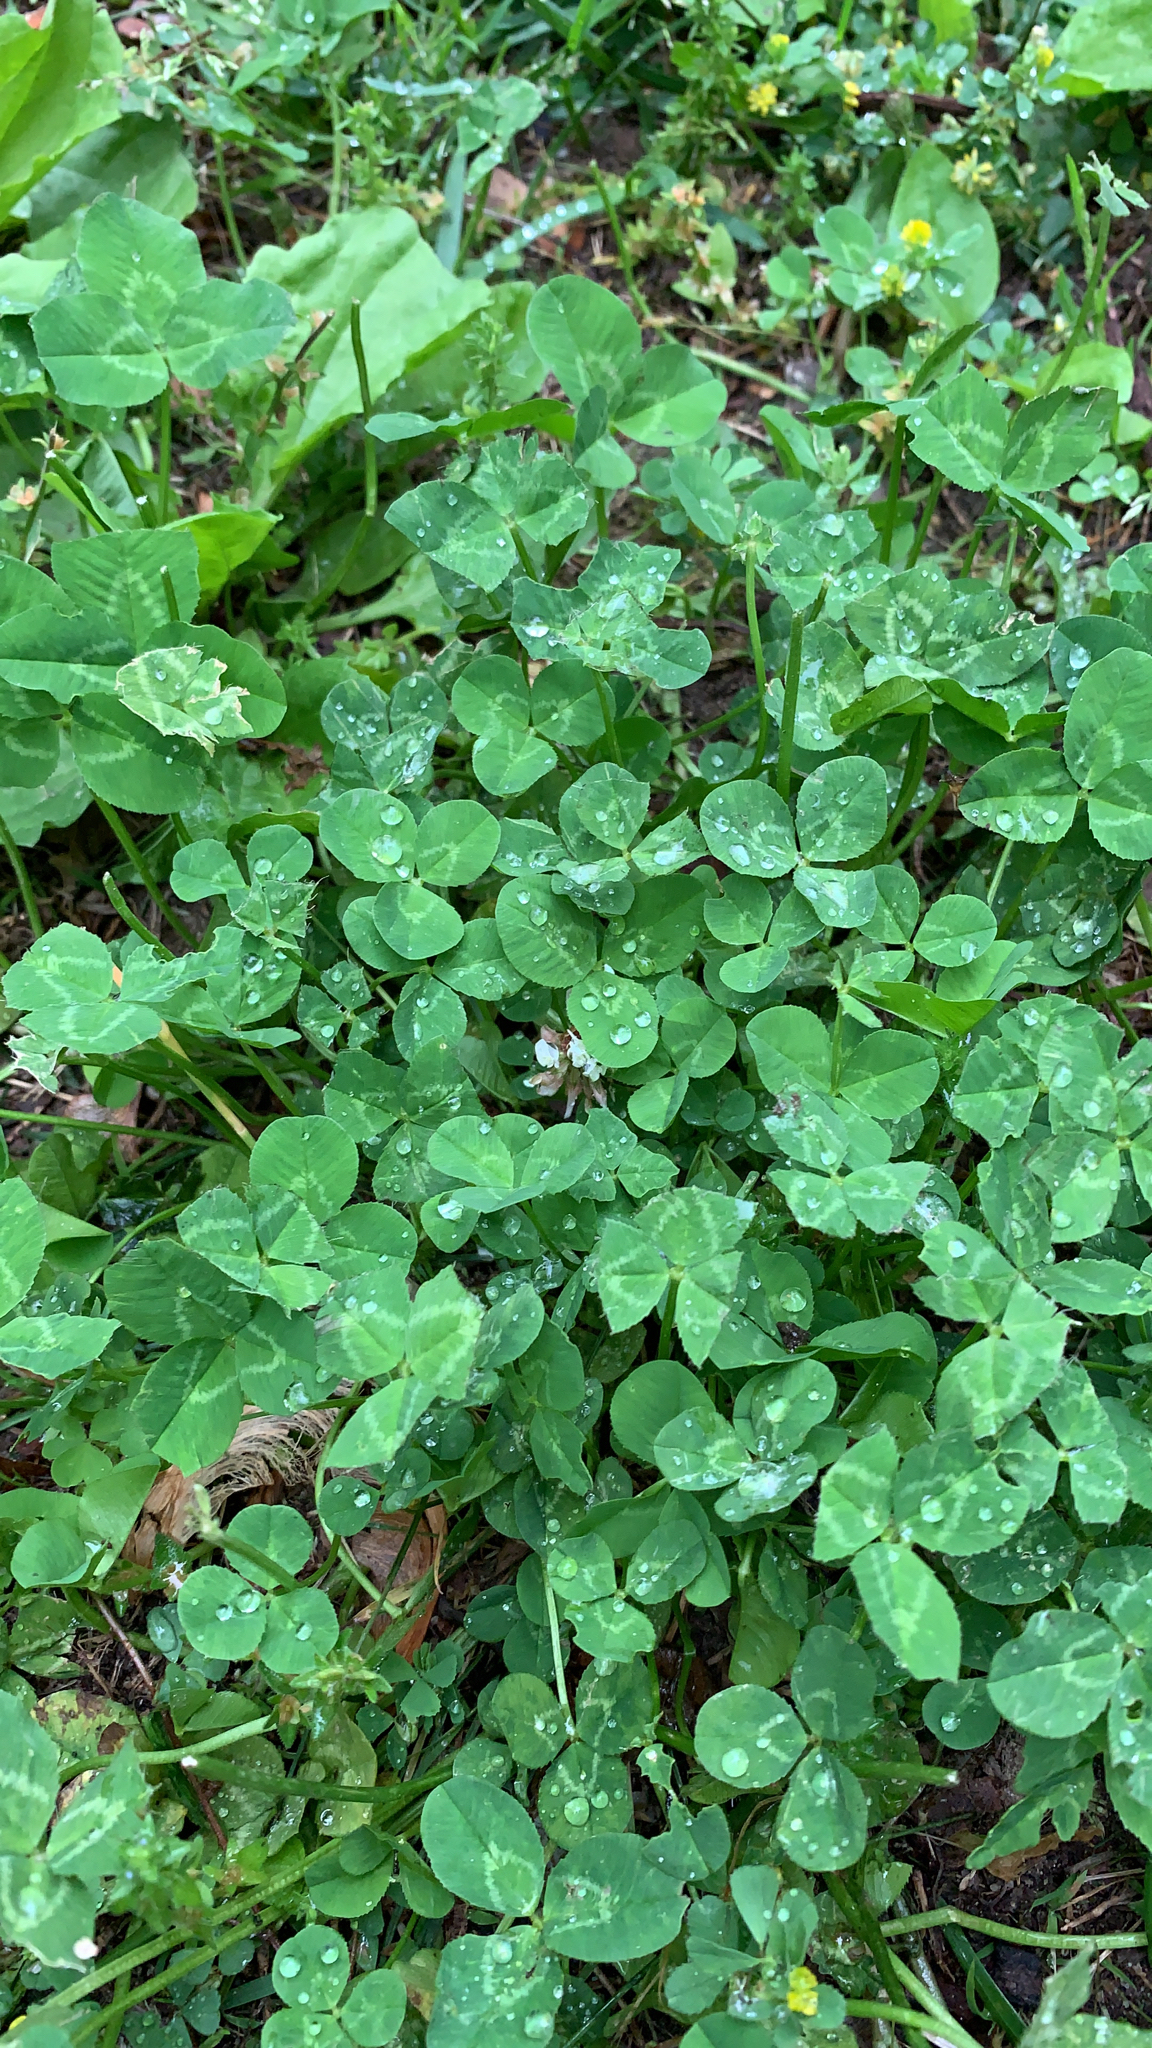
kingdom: Plantae
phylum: Tracheophyta
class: Magnoliopsida
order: Fabales
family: Fabaceae
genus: Trifolium
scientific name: Trifolium repens
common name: White clover
